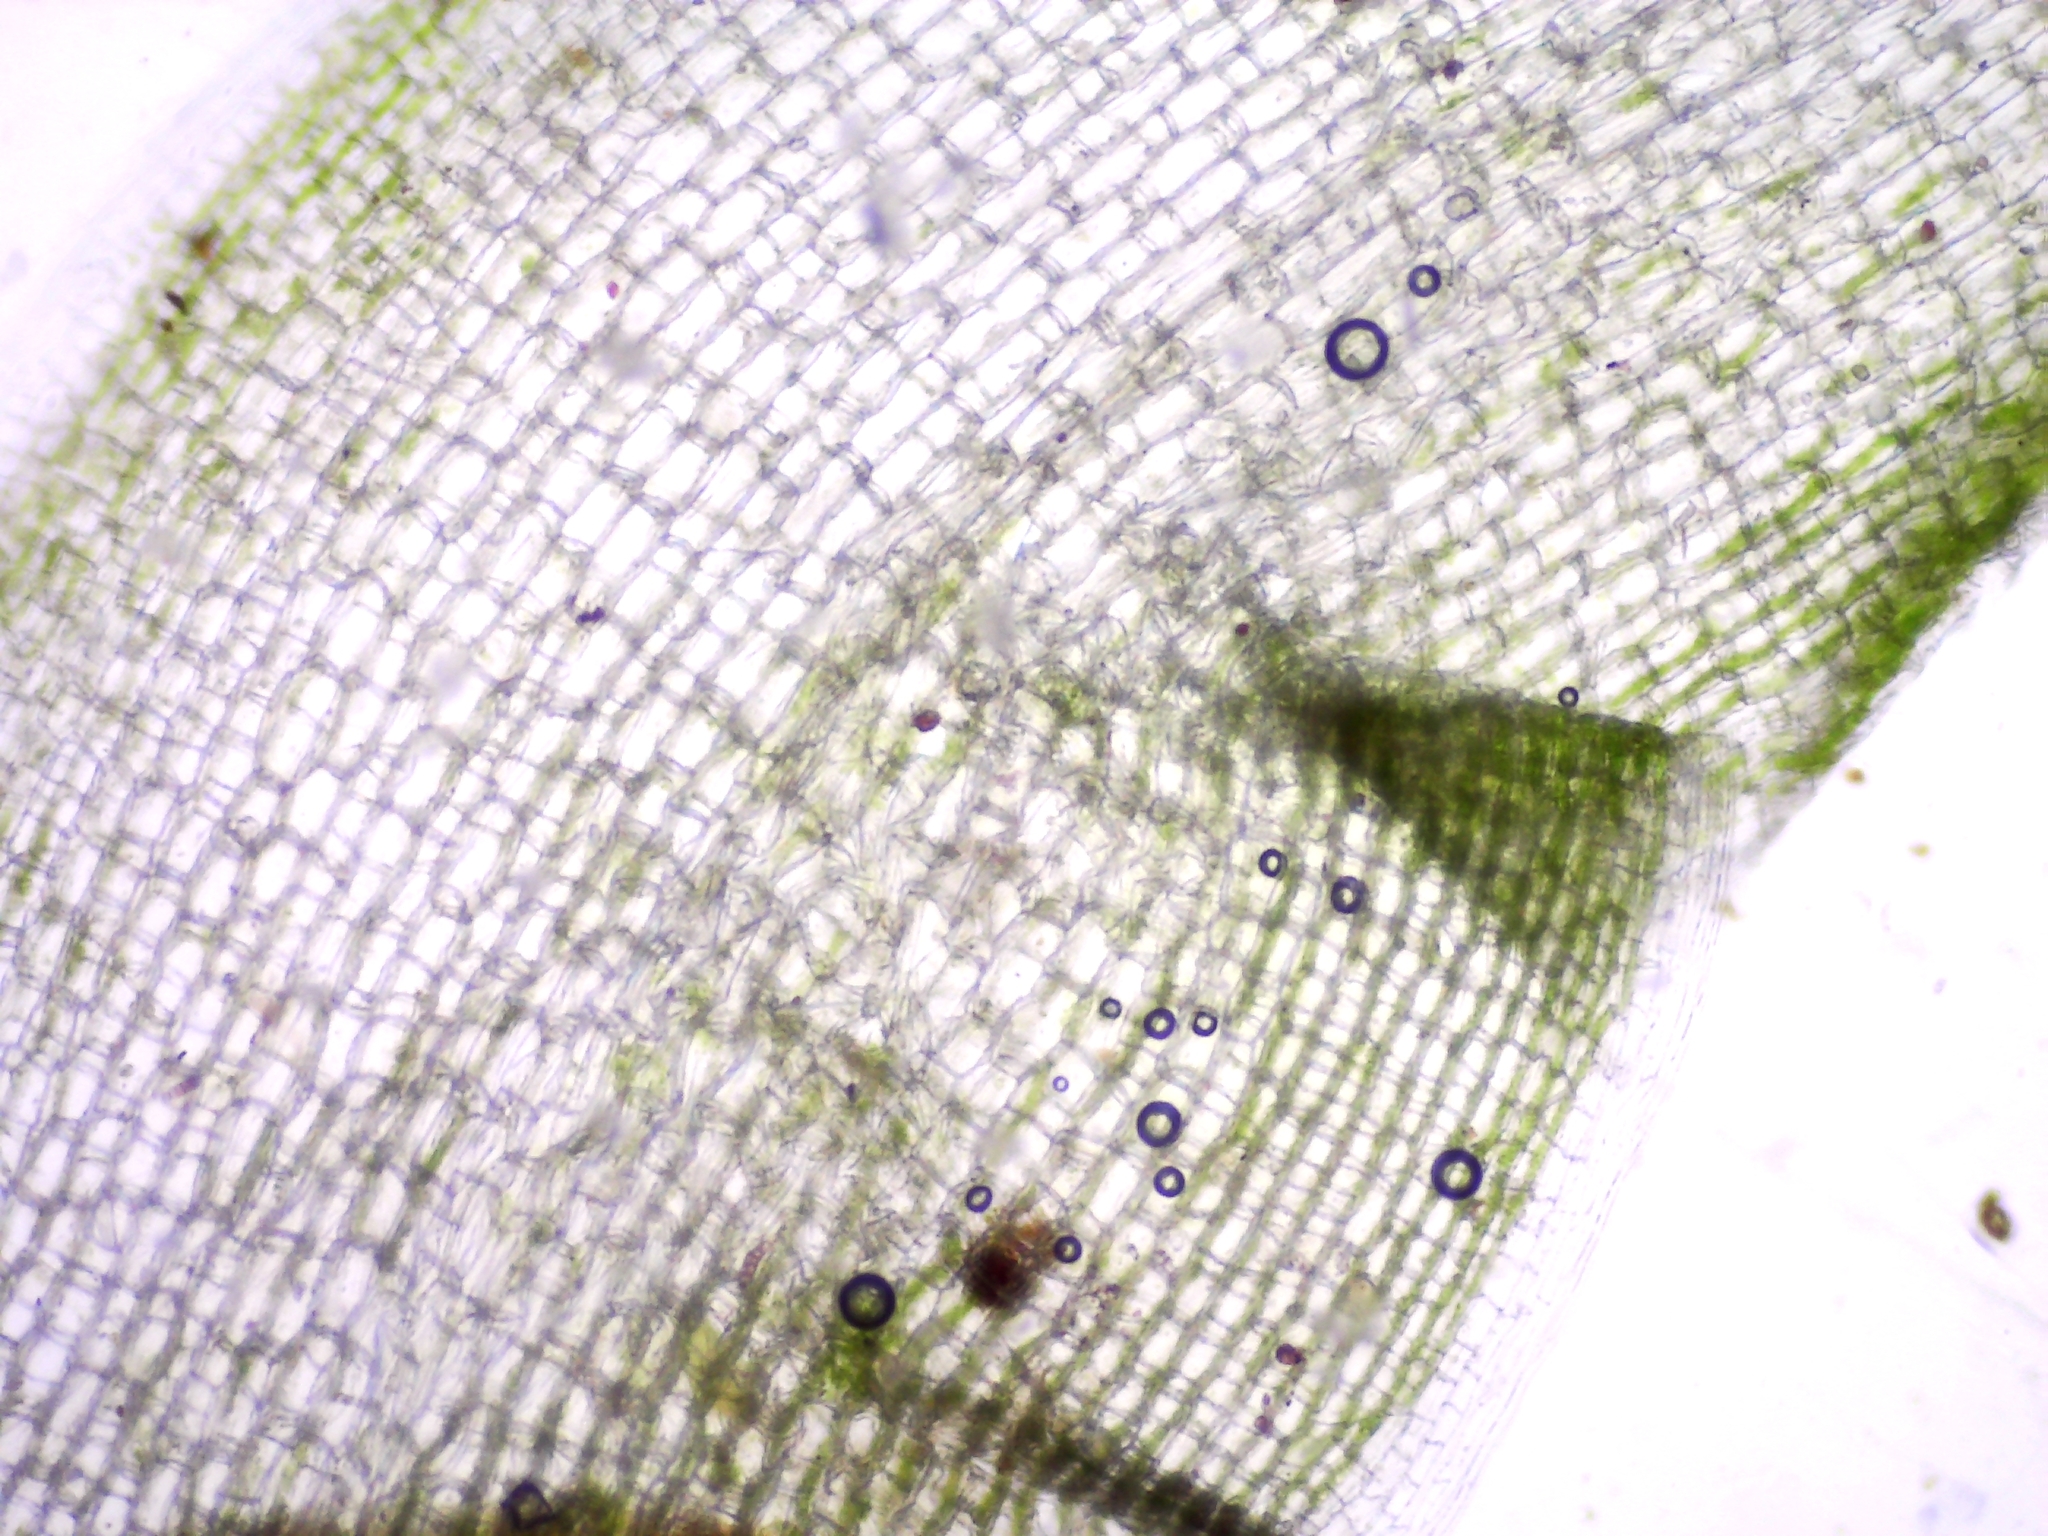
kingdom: Plantae
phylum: Bryophyta
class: Bryopsida
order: Dicranales
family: Leucobryaceae
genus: Leucobryum
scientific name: Leucobryum glaucum
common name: Large white-moss
